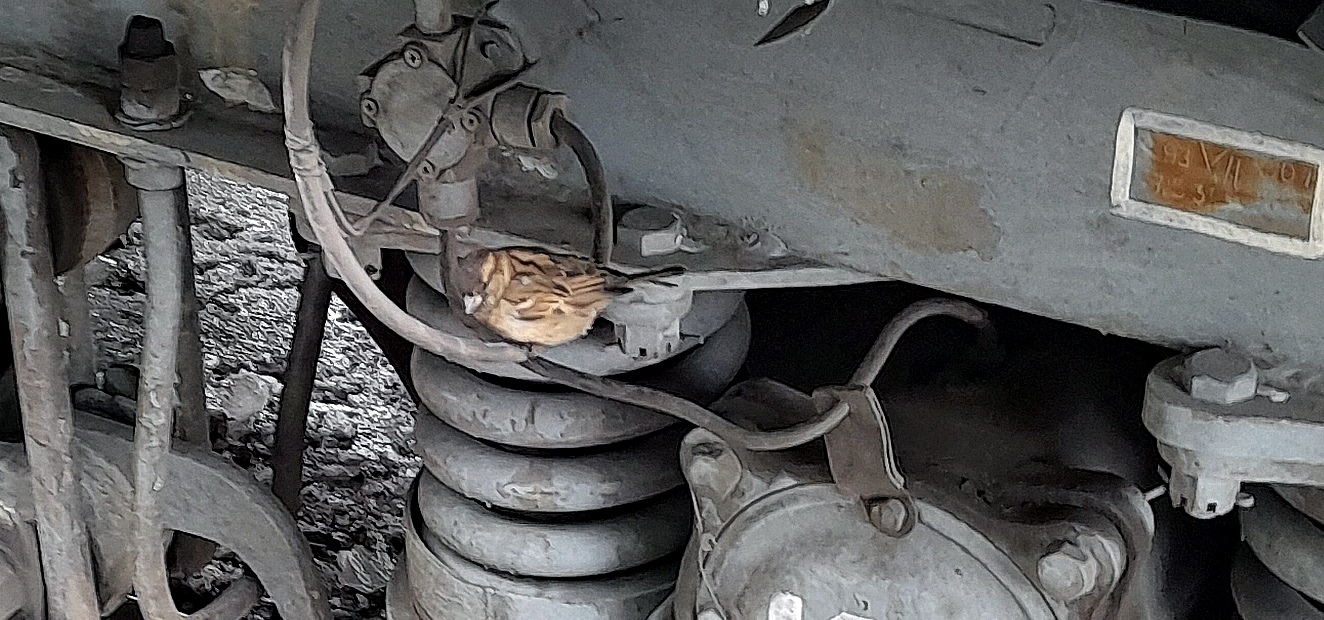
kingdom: Animalia
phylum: Chordata
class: Aves
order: Passeriformes
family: Passeridae
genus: Passer
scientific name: Passer domesticus
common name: House sparrow
